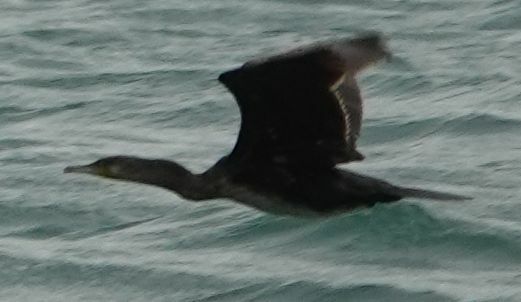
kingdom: Animalia
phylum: Chordata
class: Aves
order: Suliformes
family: Phalacrocoracidae
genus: Phalacrocorax
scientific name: Phalacrocorax carbo
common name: Great cormorant
